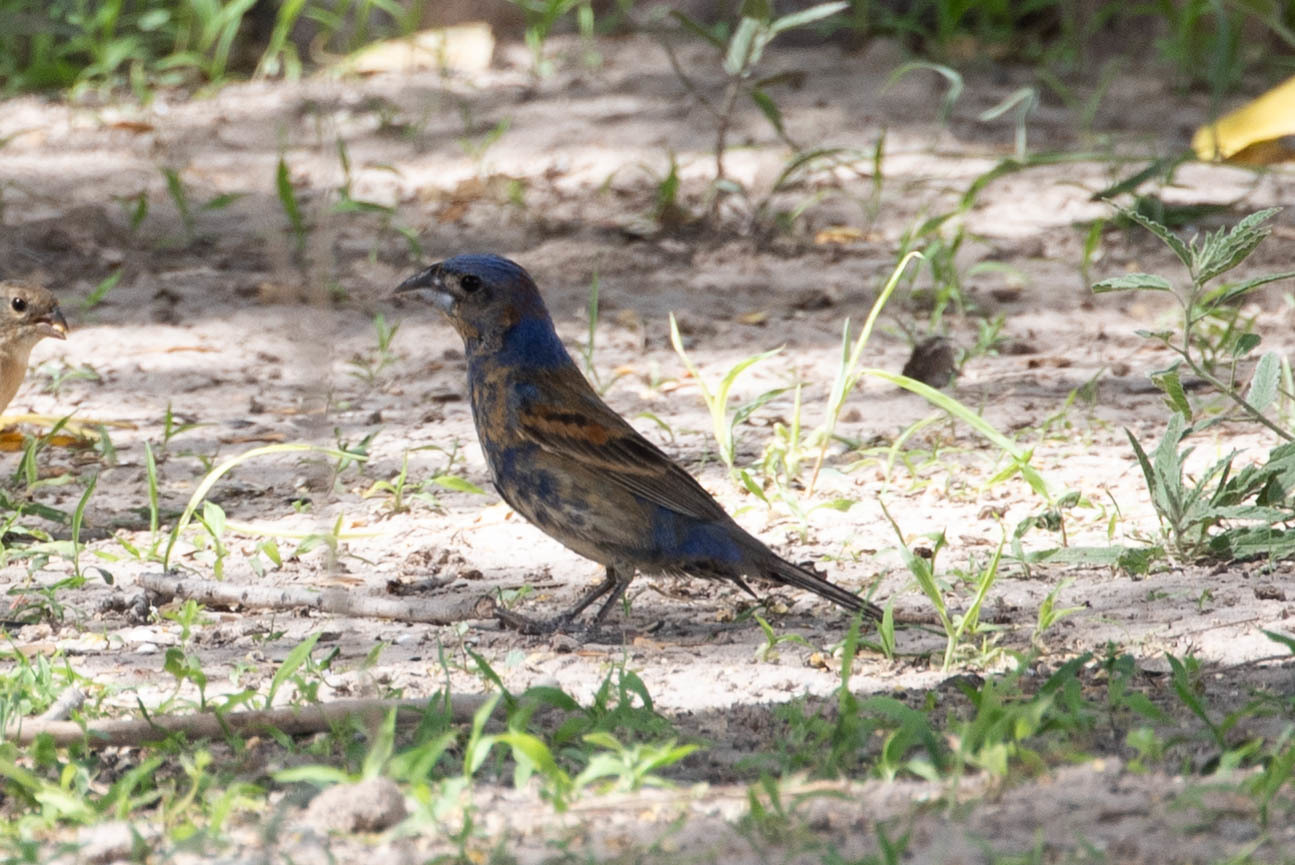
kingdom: Animalia
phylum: Chordata
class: Aves
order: Passeriformes
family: Cardinalidae
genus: Passerina
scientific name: Passerina caerulea
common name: Blue grosbeak
